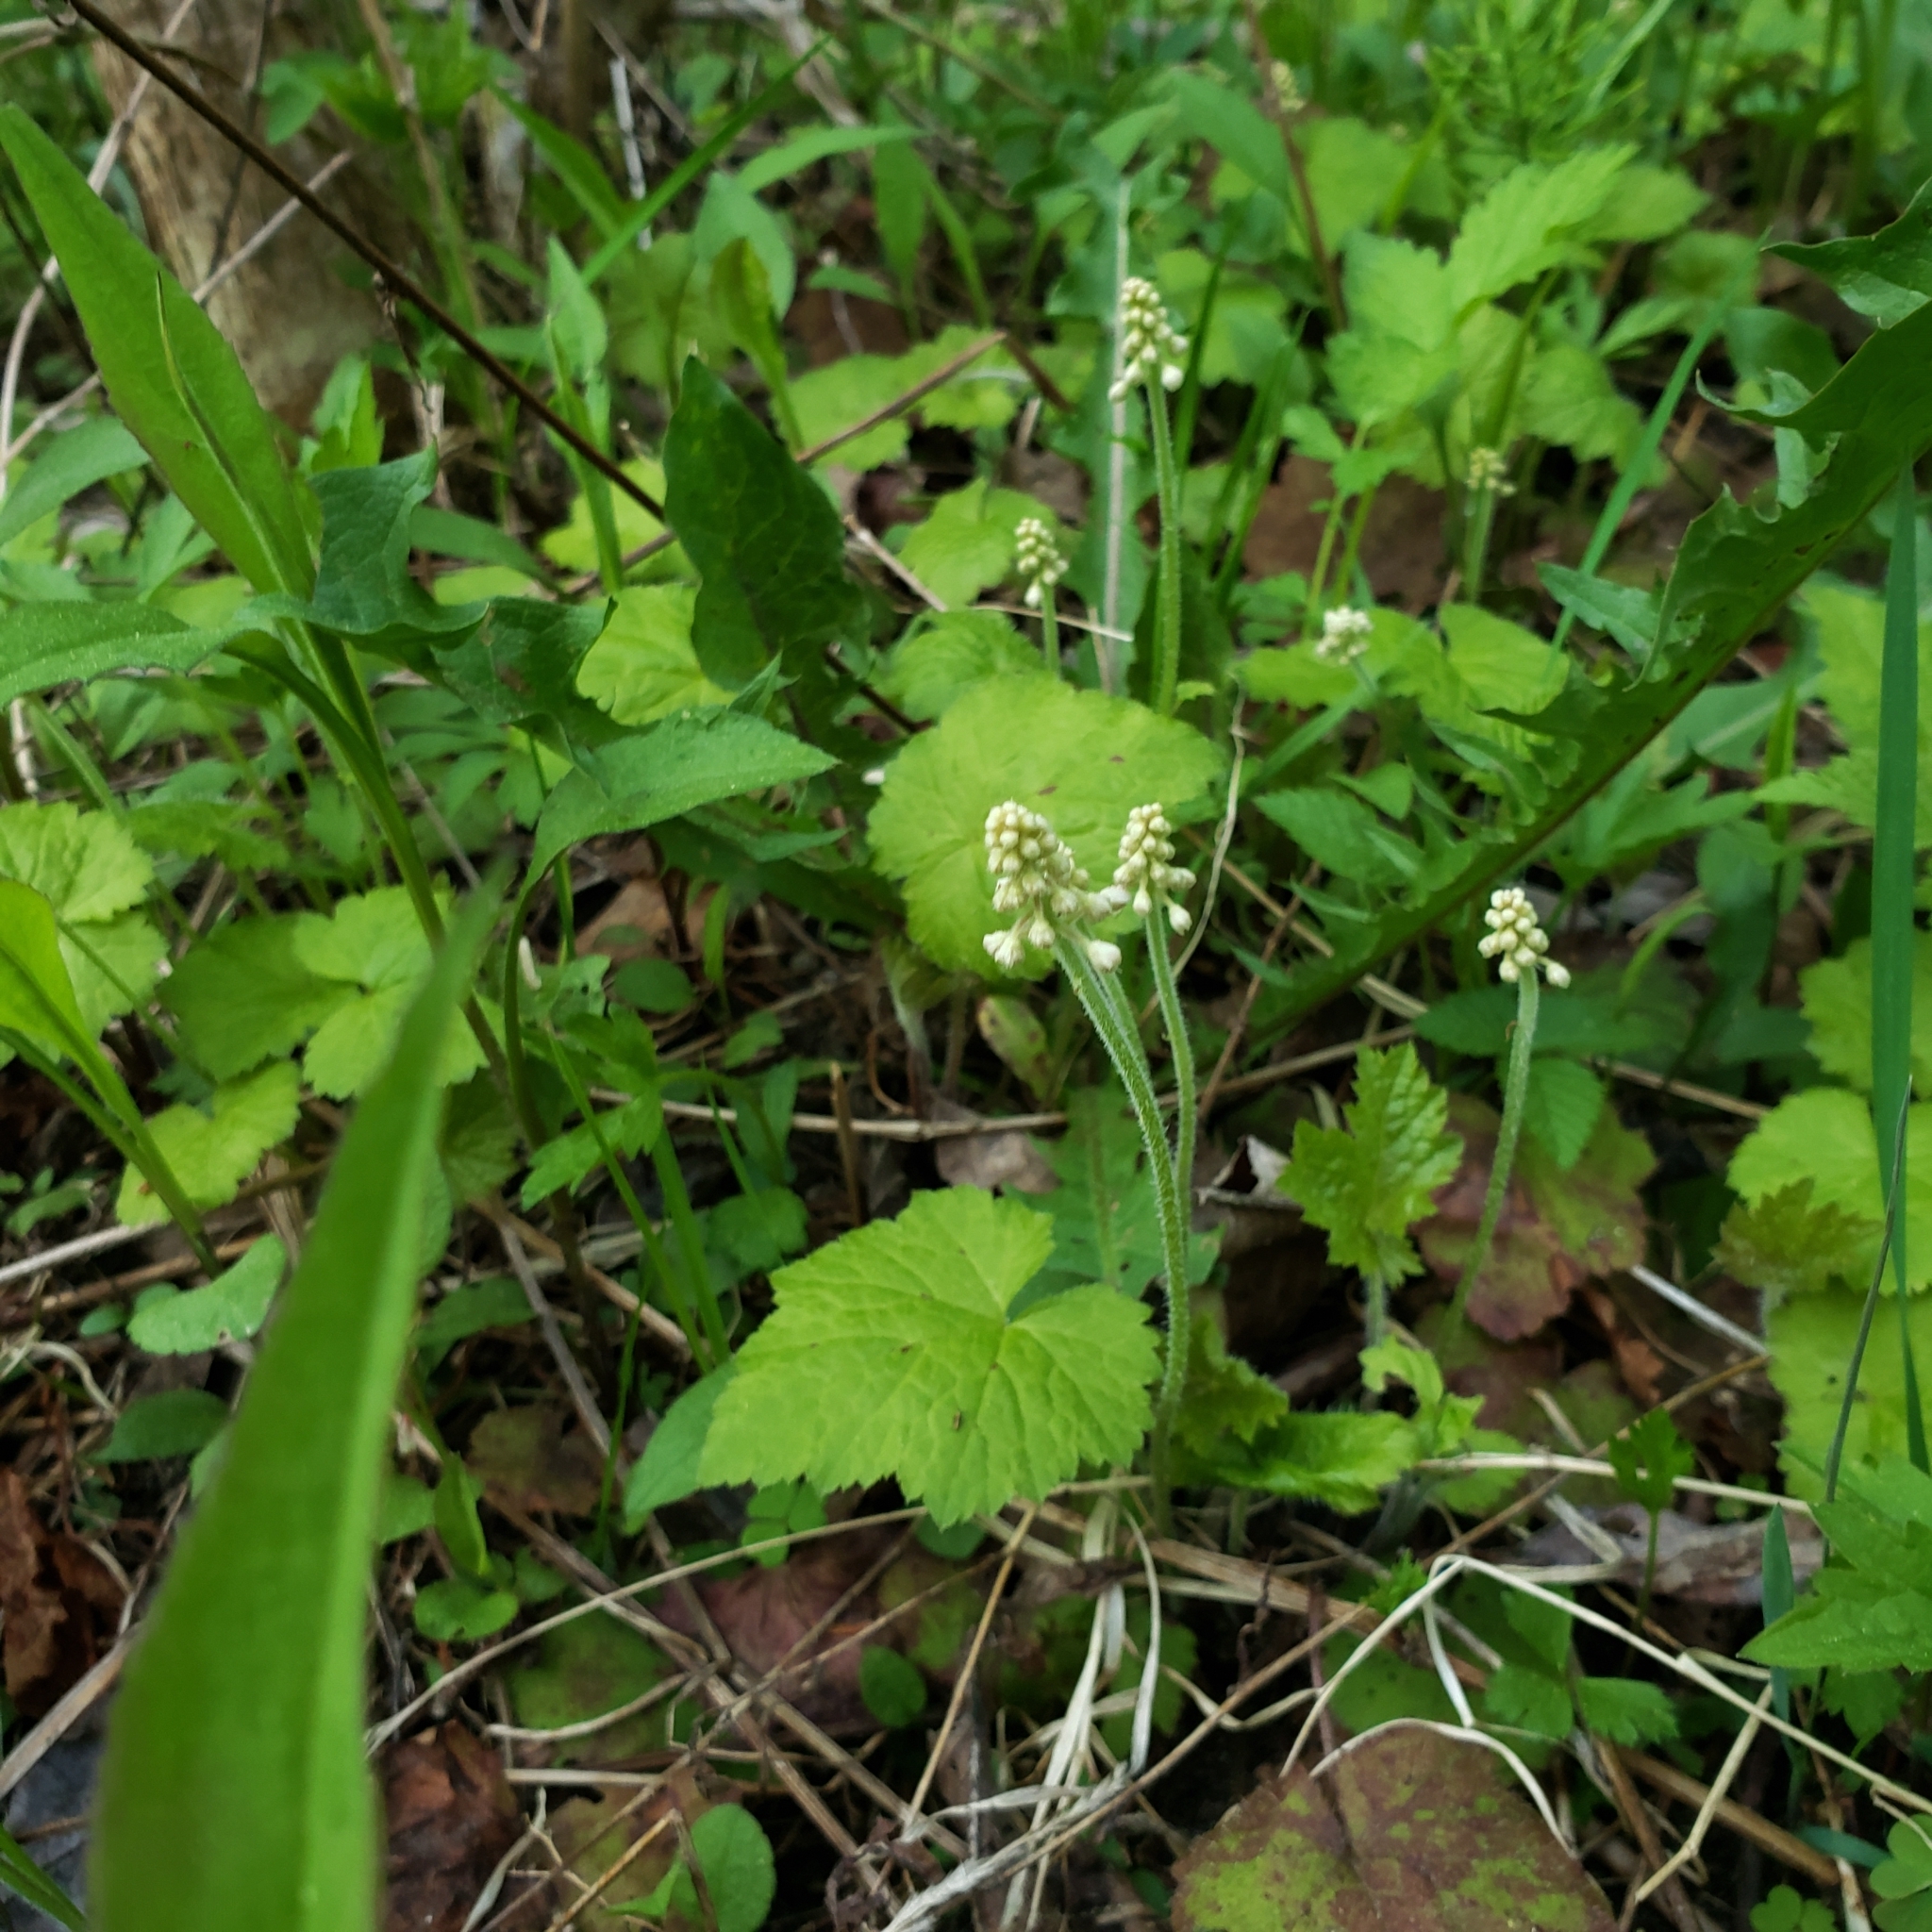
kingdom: Plantae
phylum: Tracheophyta
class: Magnoliopsida
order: Saxifragales
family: Saxifragaceae
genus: Tiarella
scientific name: Tiarella stolonifera
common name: Stoloniferous foamflower
